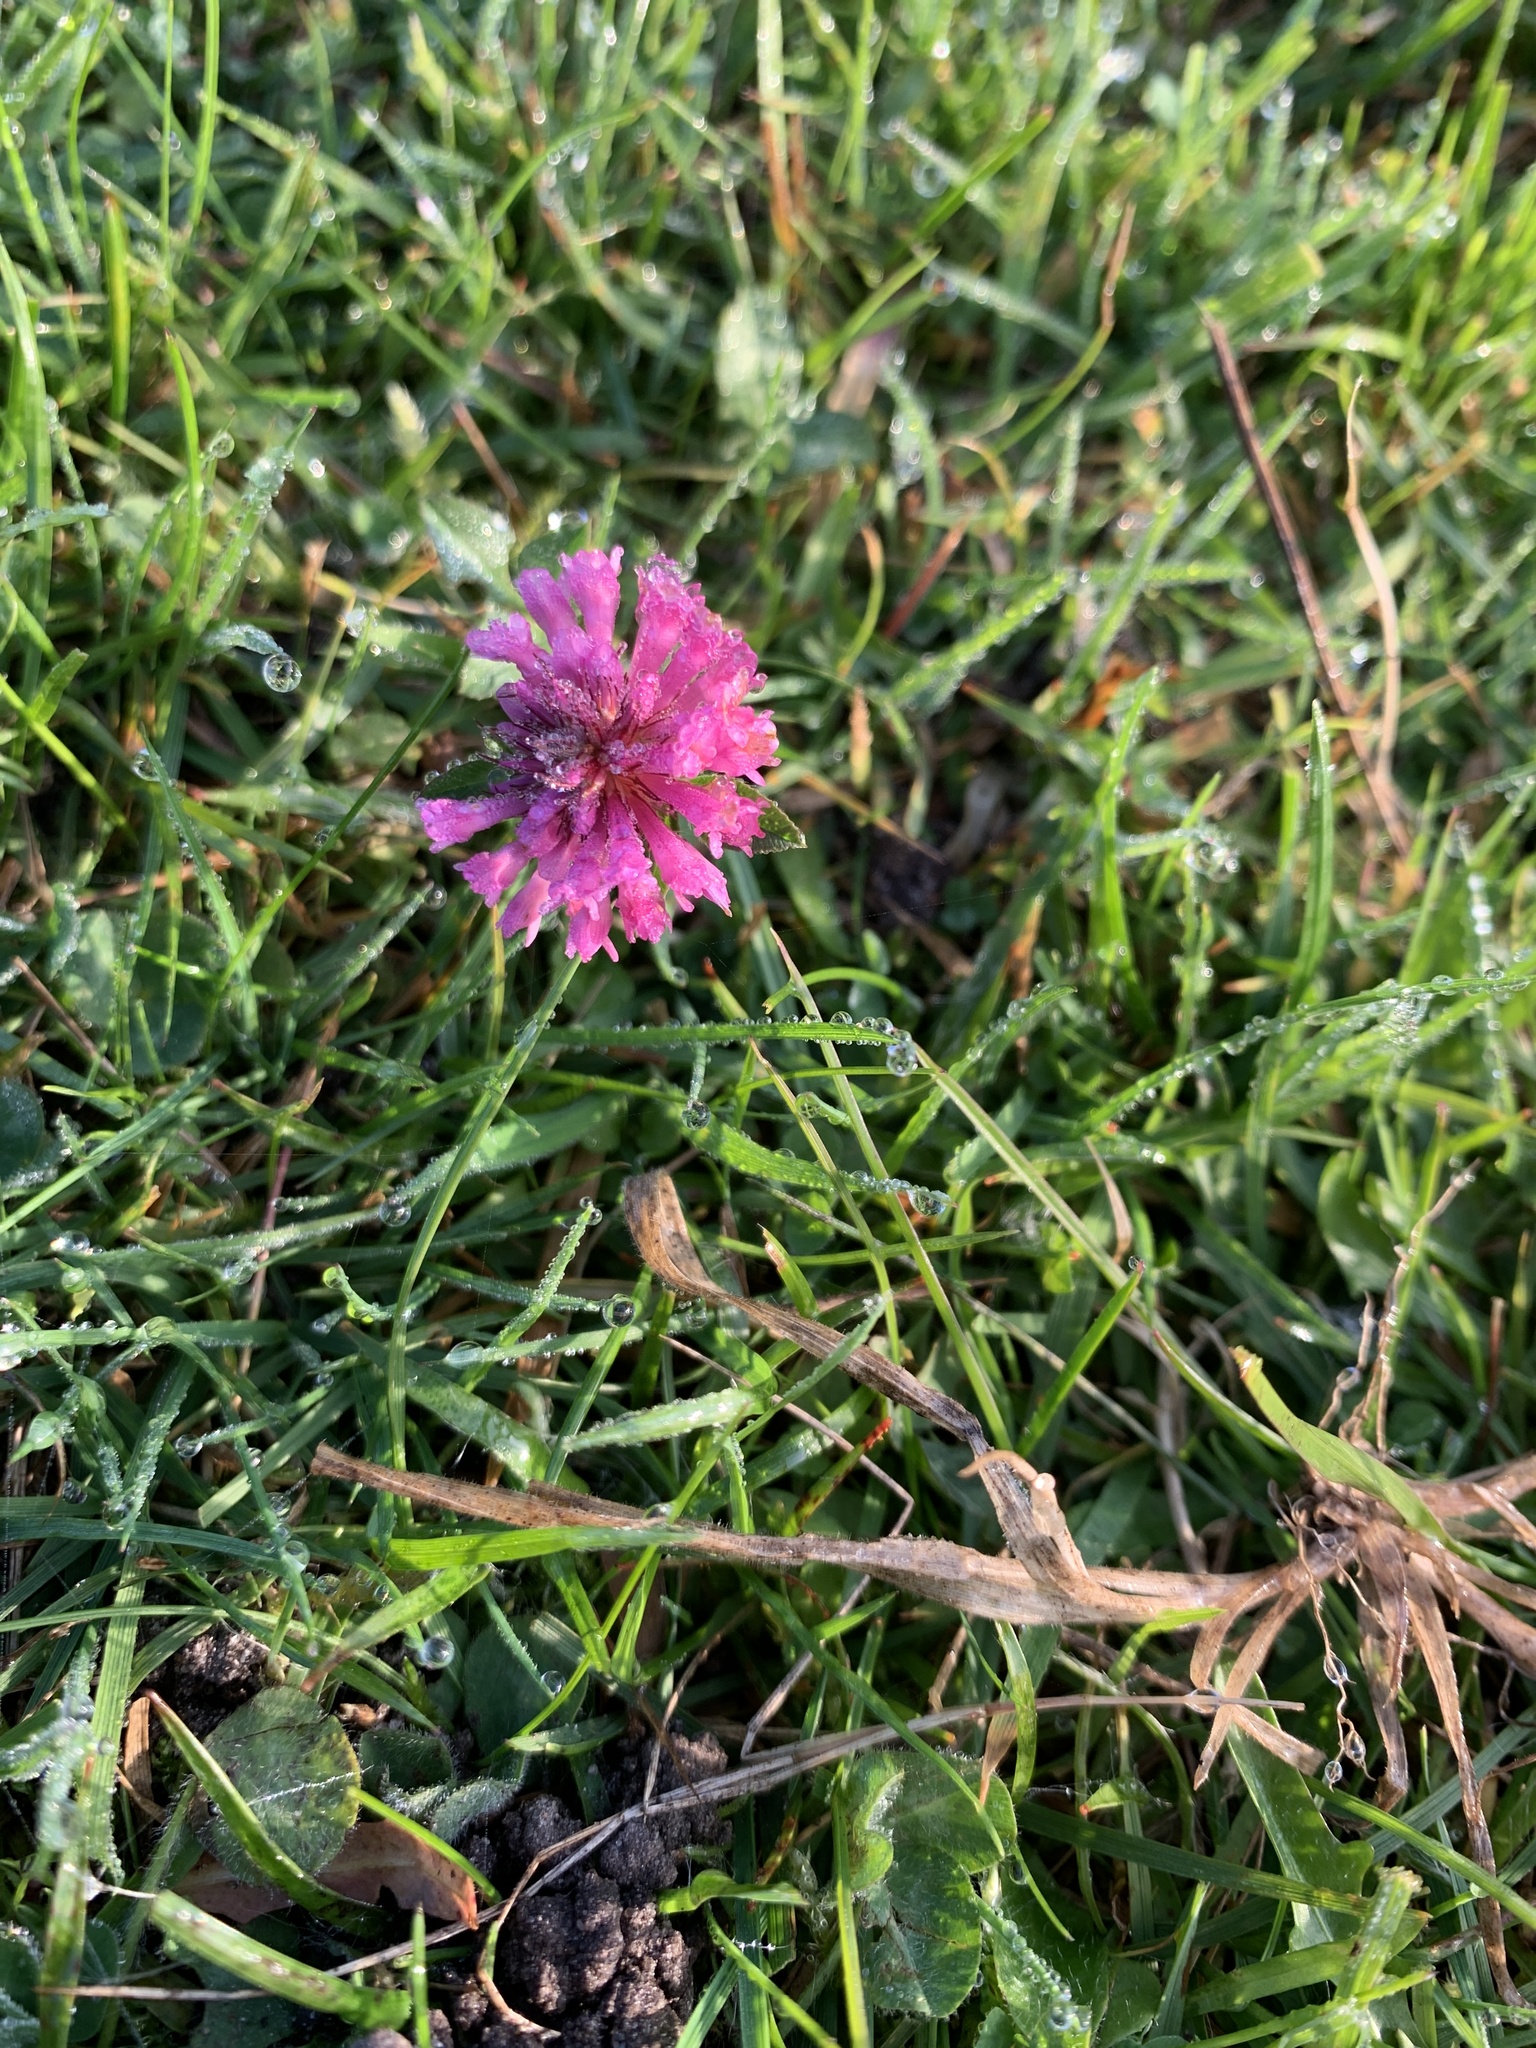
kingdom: Plantae
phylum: Tracheophyta
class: Magnoliopsida
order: Fabales
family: Fabaceae
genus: Trifolium
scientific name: Trifolium pratense
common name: Red clover
